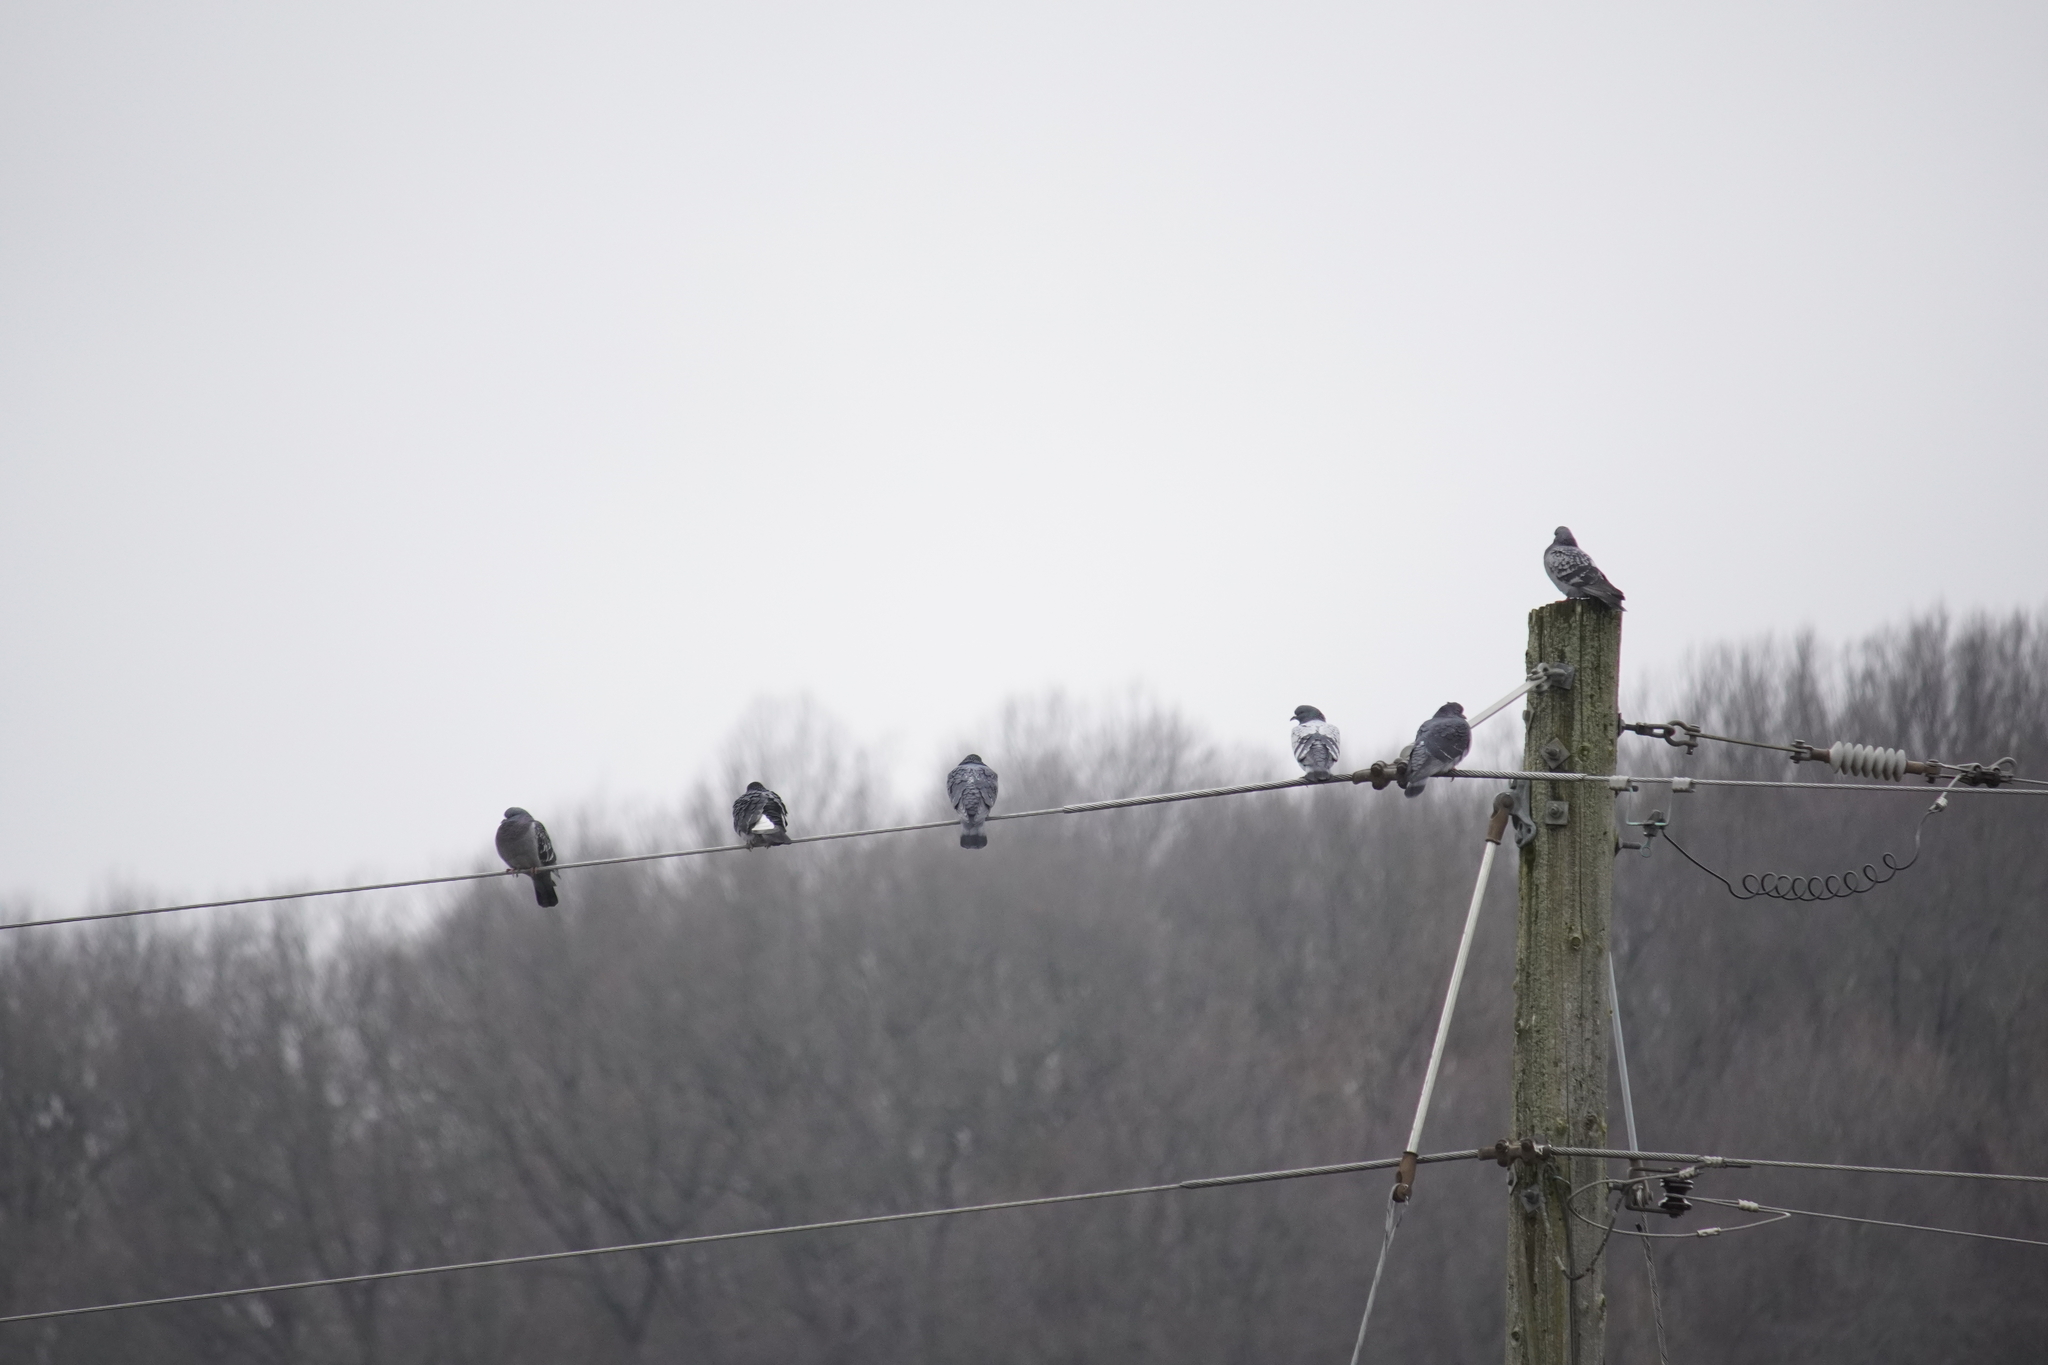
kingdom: Animalia
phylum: Chordata
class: Aves
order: Columbiformes
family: Columbidae
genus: Columba
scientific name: Columba livia
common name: Rock pigeon
